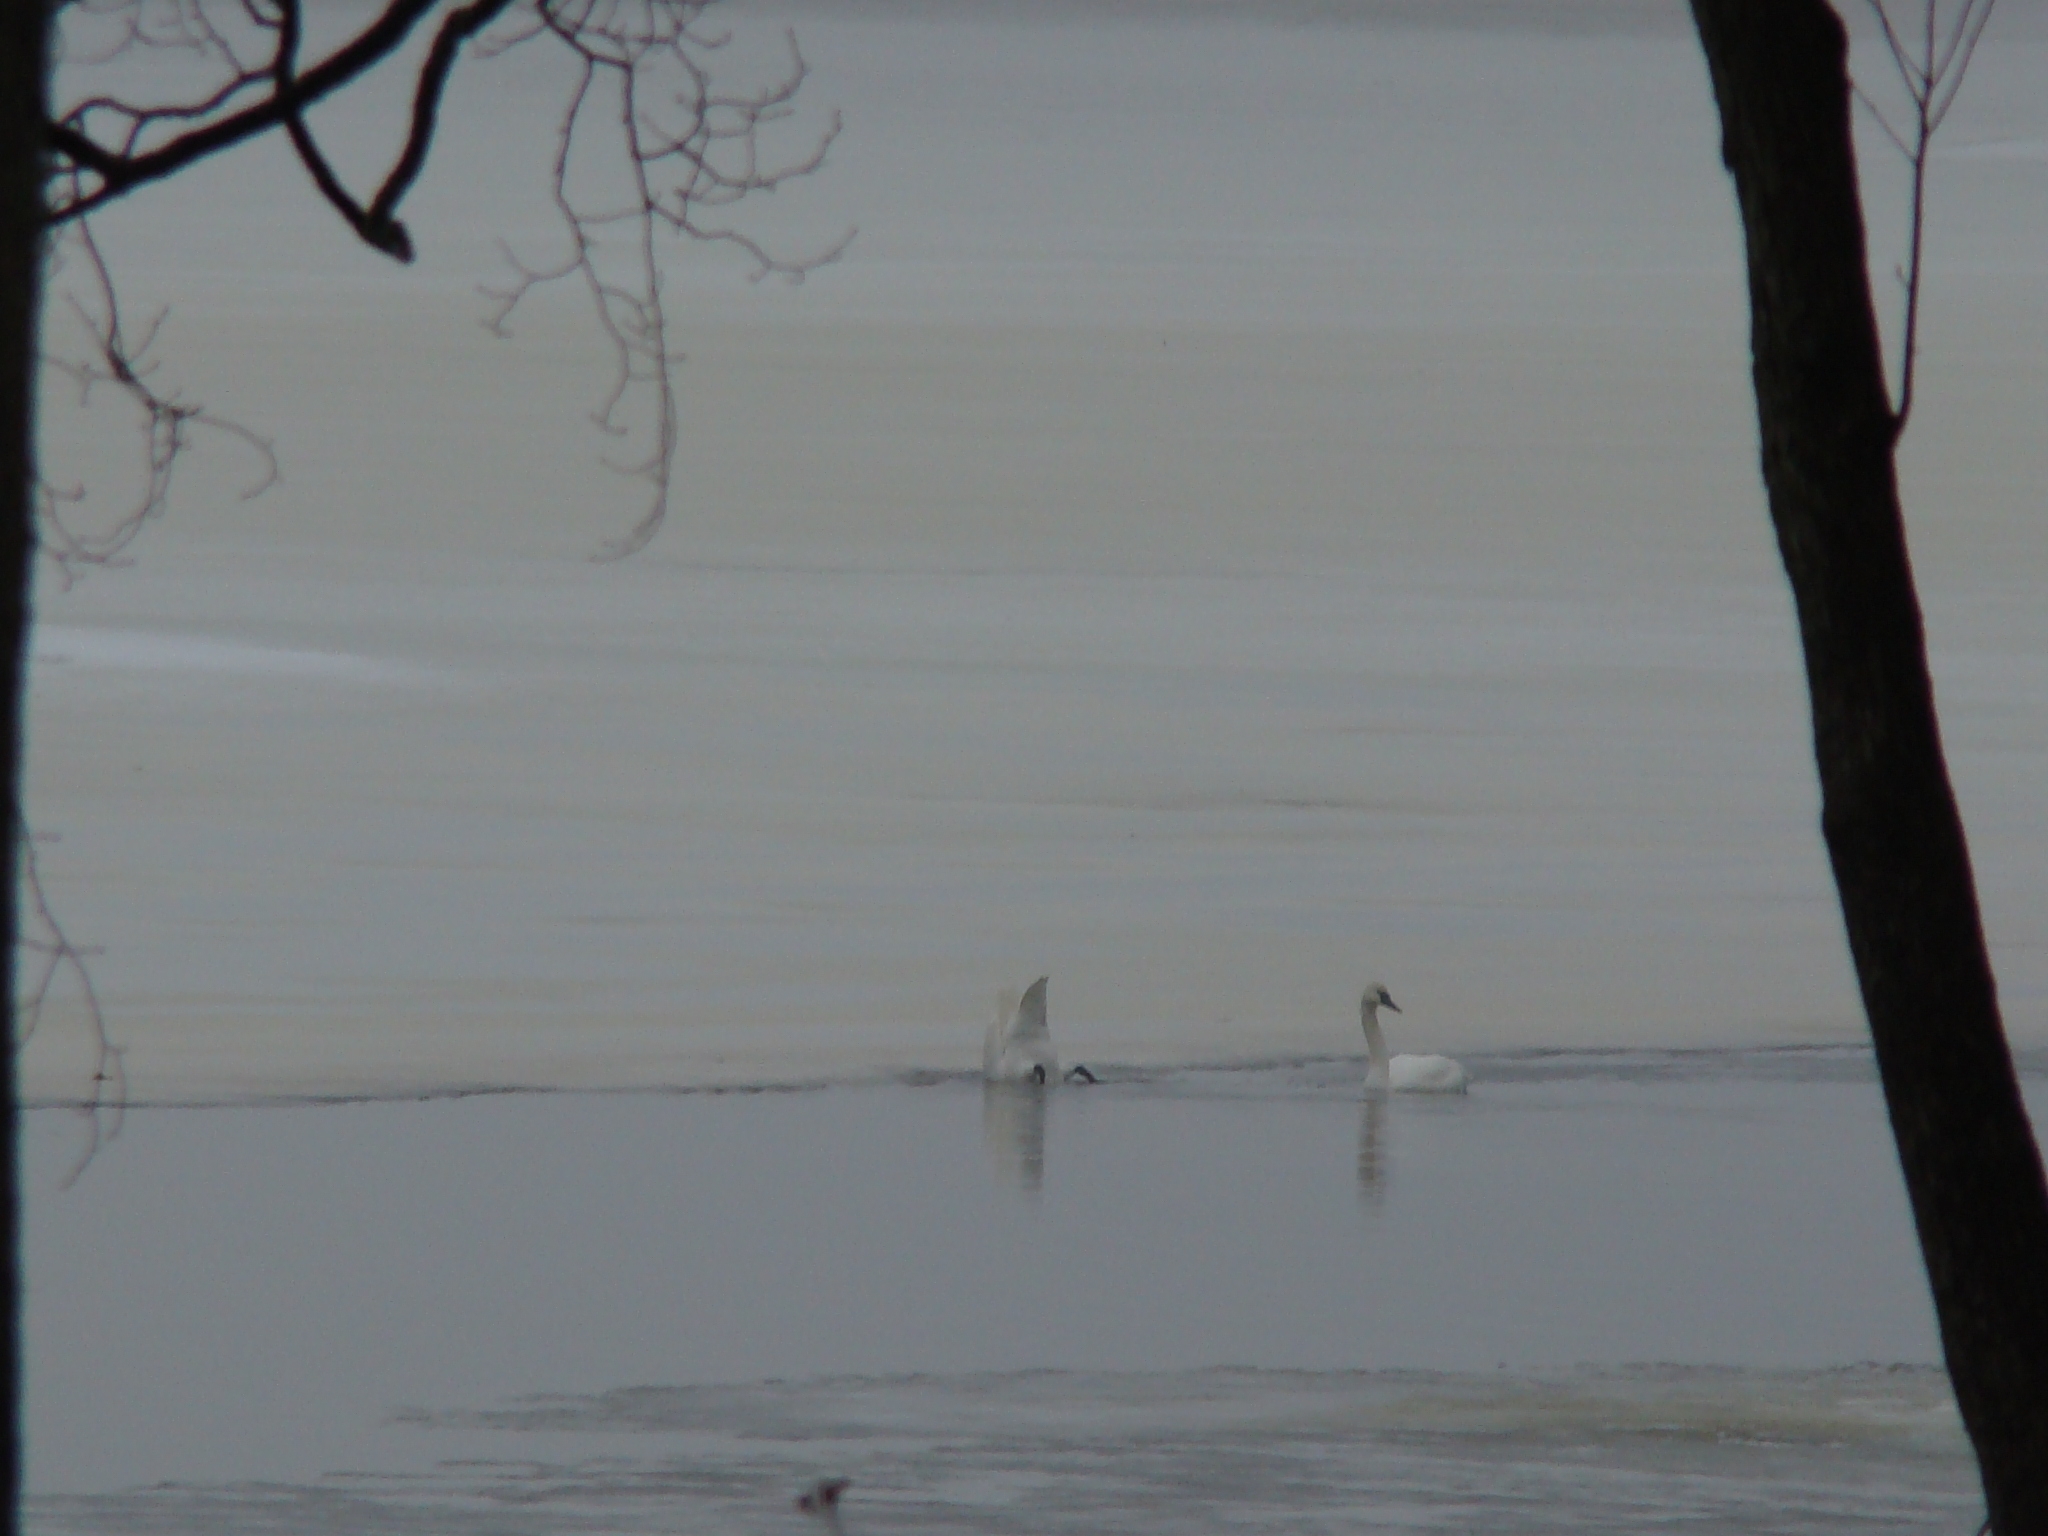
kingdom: Animalia
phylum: Chordata
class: Aves
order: Anseriformes
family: Anatidae
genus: Cygnus
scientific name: Cygnus buccinator
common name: Trumpeter swan
